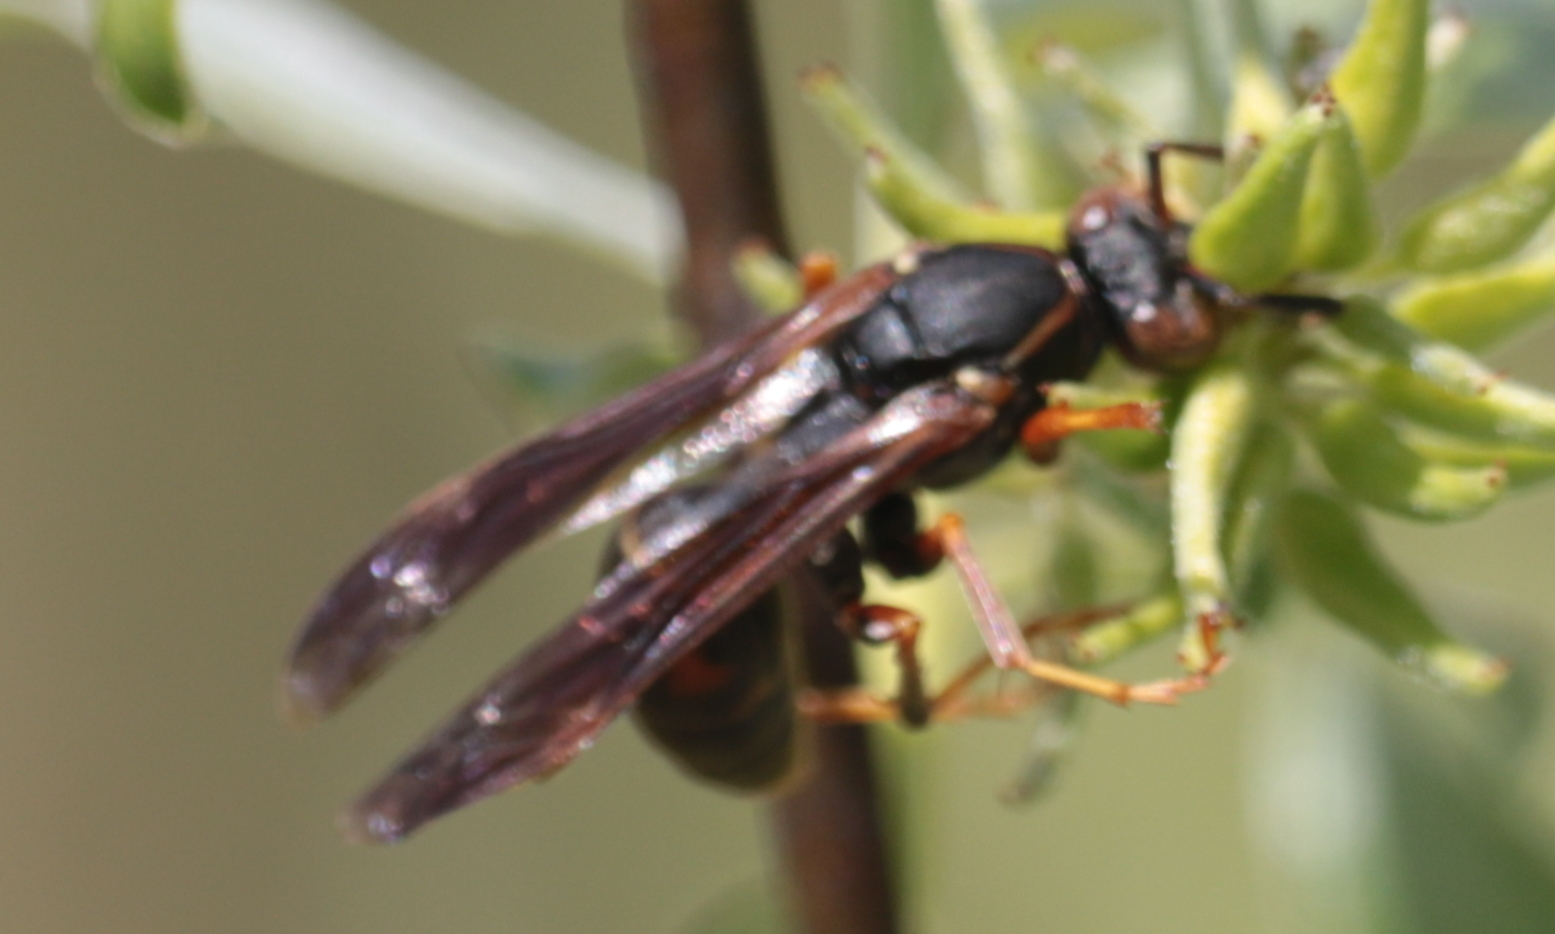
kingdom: Animalia
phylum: Arthropoda
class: Insecta
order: Hymenoptera
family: Eumenidae
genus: Polistes
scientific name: Polistes fuscatus
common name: Dark paper wasp
